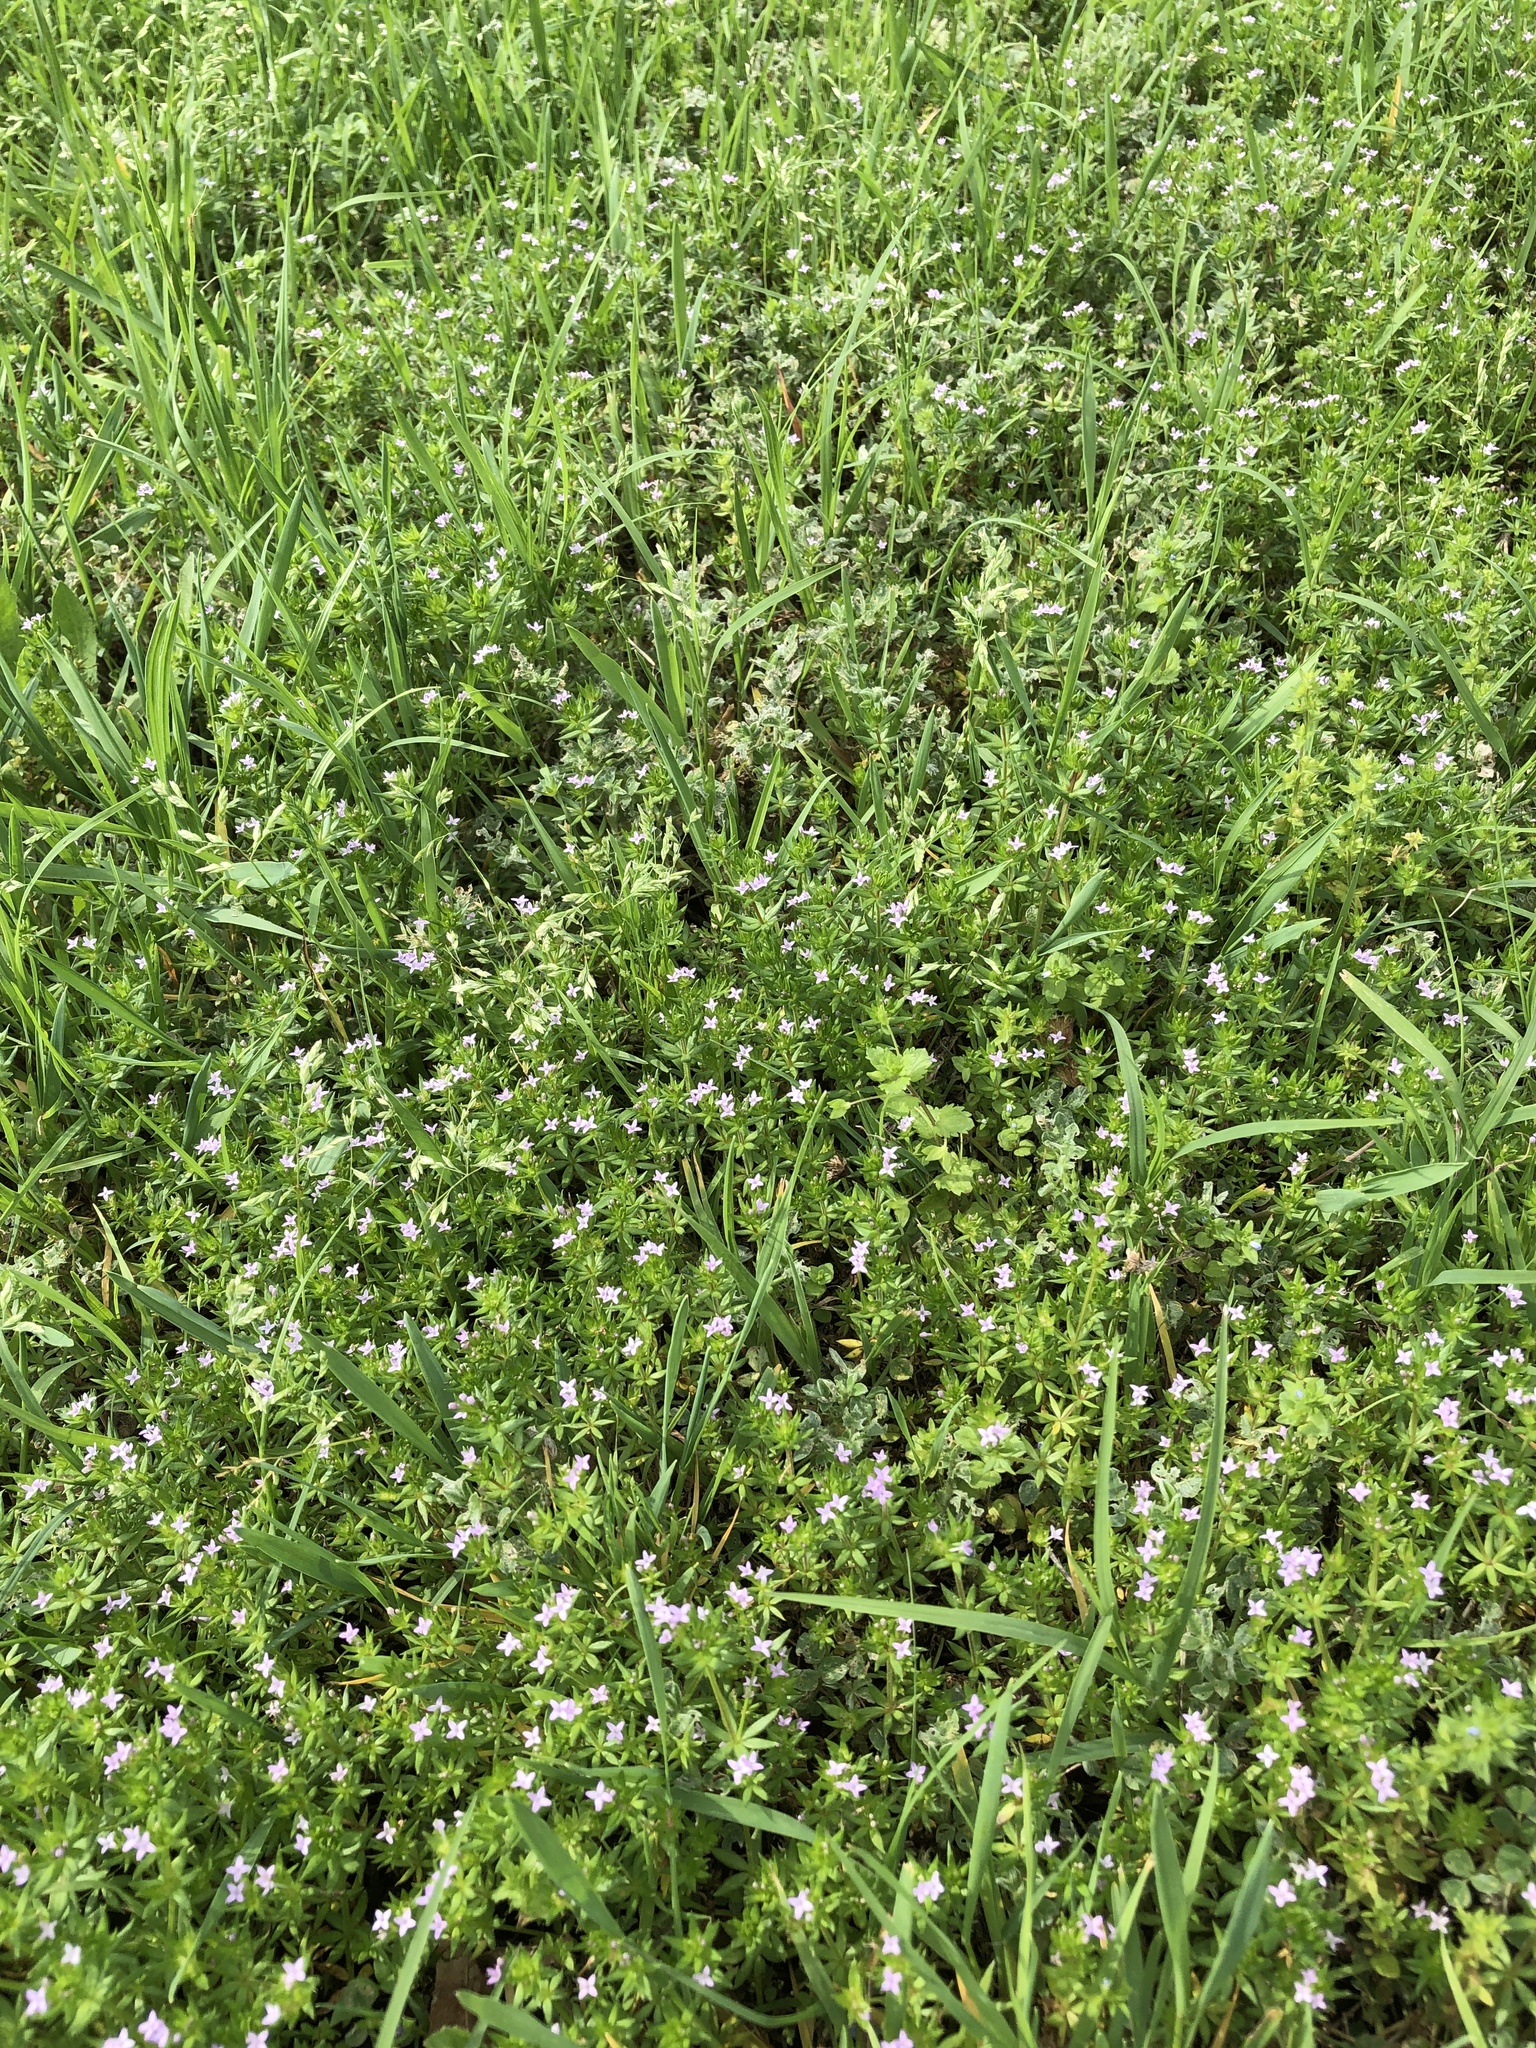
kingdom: Plantae
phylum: Tracheophyta
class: Magnoliopsida
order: Gentianales
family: Rubiaceae
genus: Sherardia
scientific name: Sherardia arvensis
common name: Field madder
